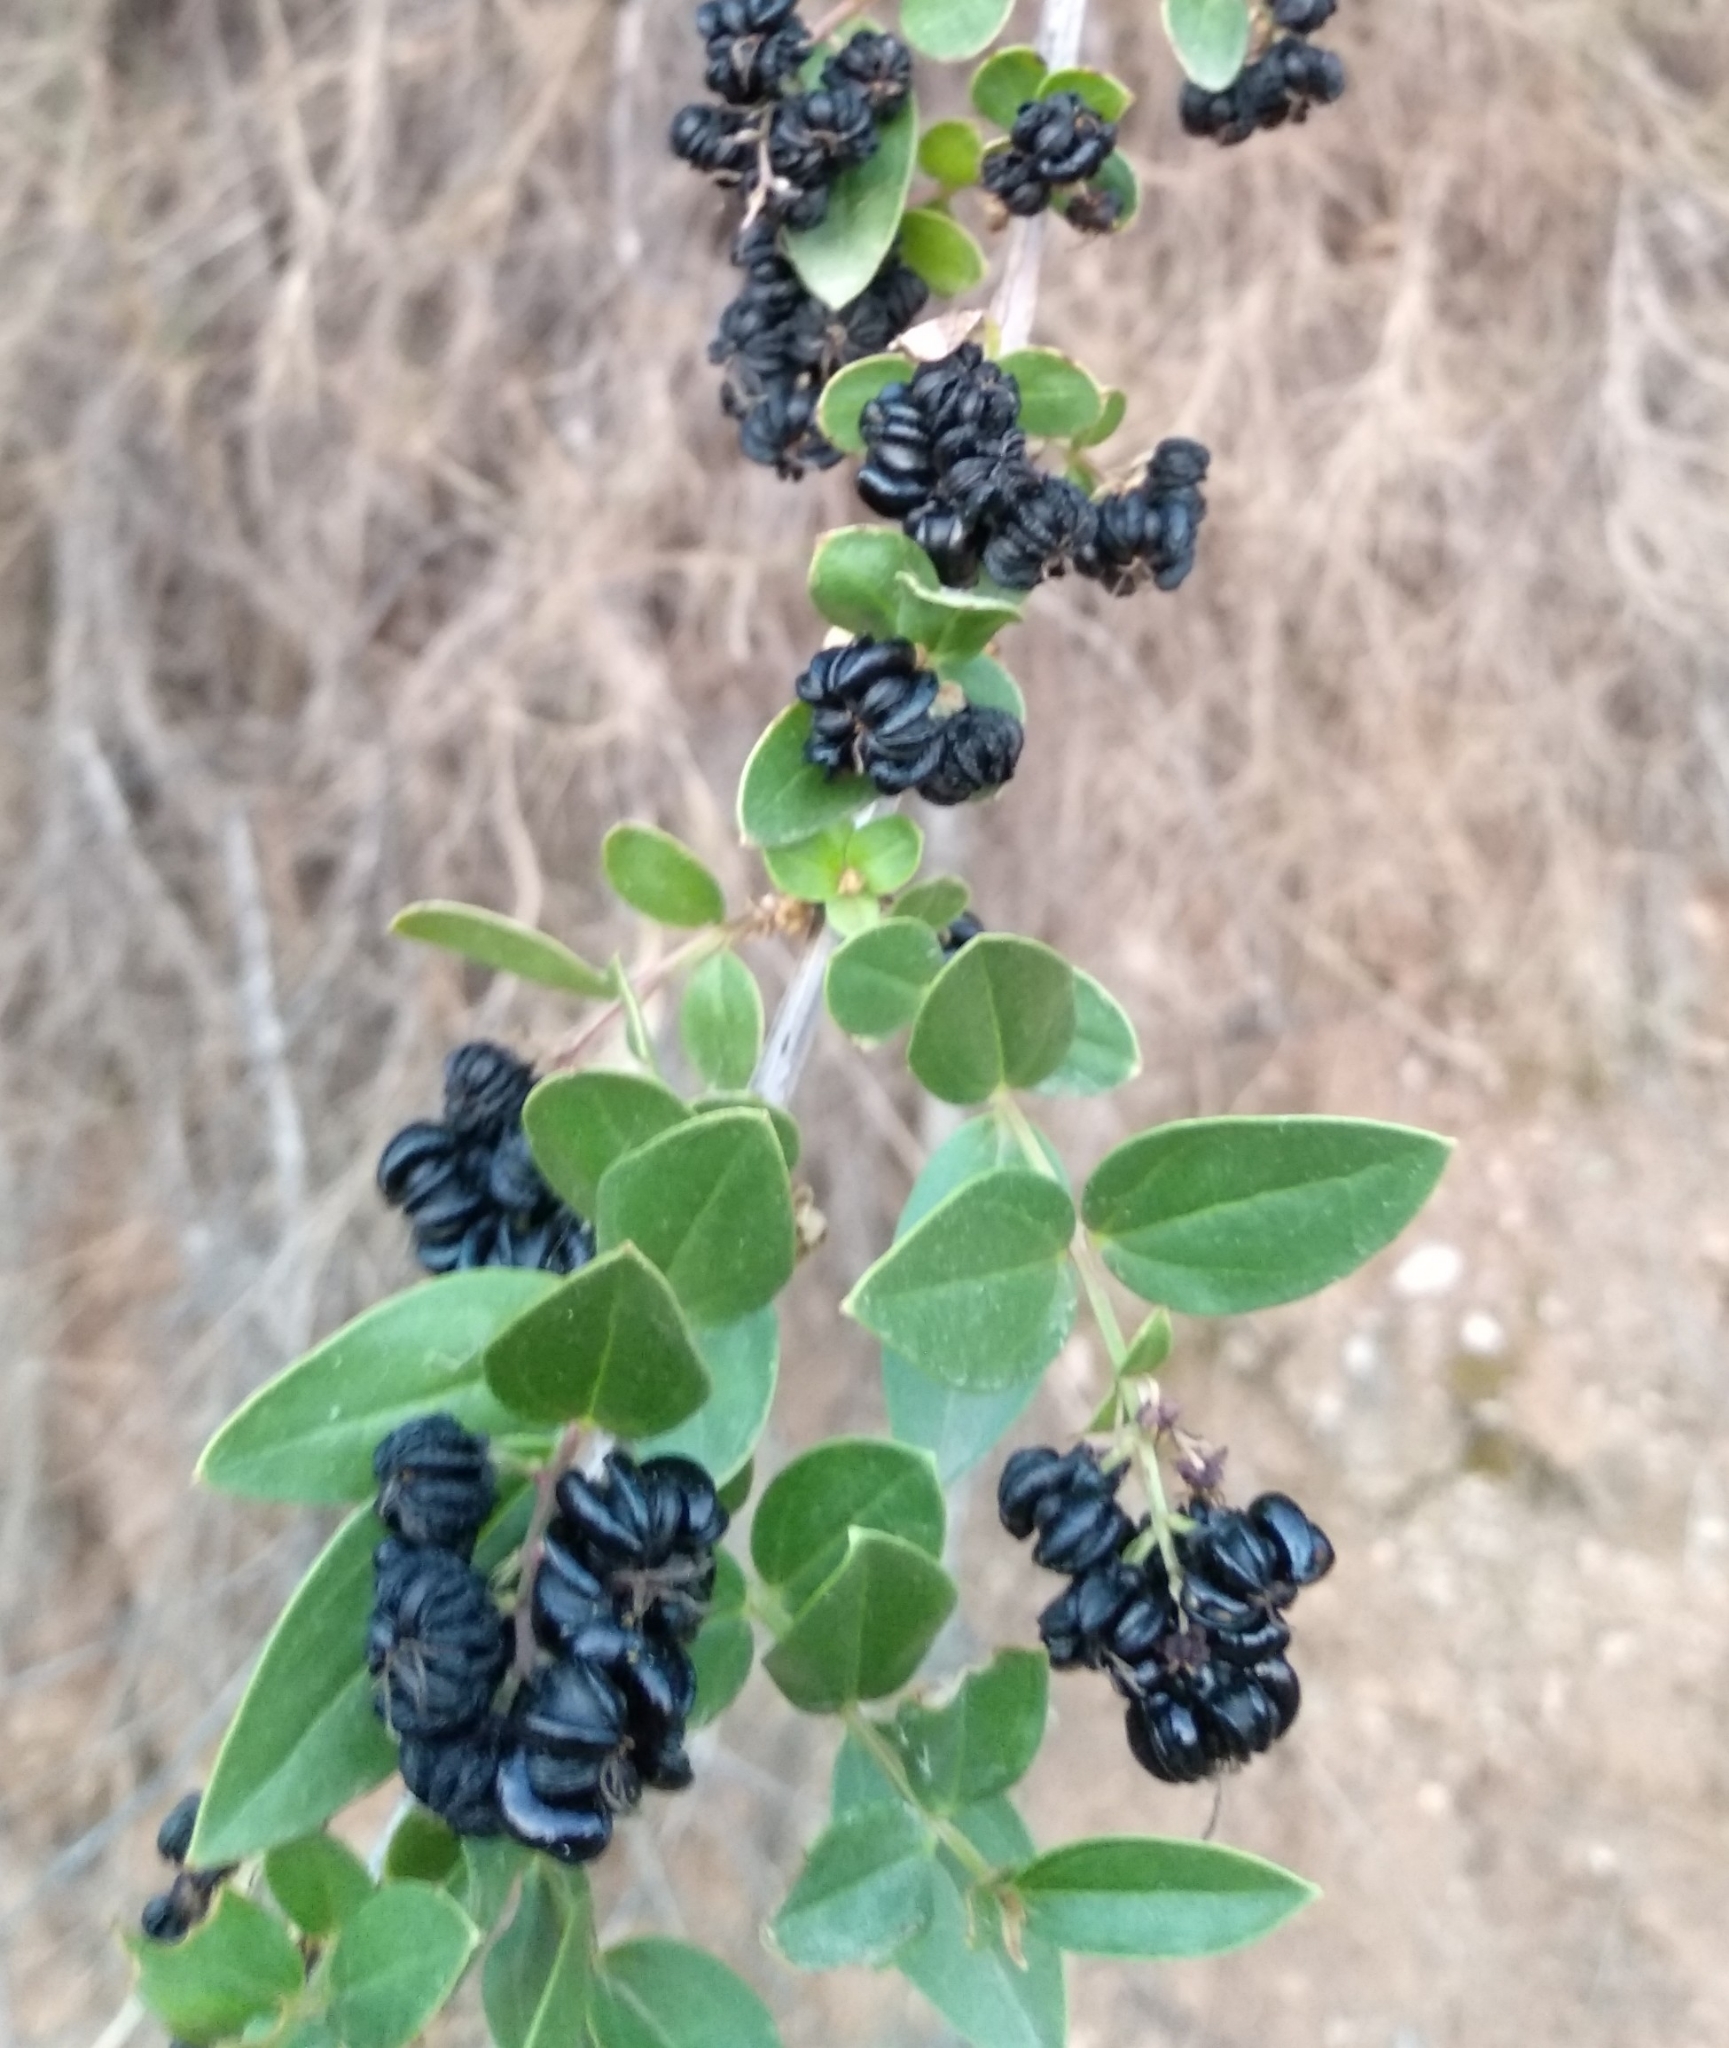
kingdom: Plantae
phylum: Tracheophyta
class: Magnoliopsida
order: Cucurbitales
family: Coriariaceae
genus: Coriaria
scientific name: Coriaria myrtifolia
